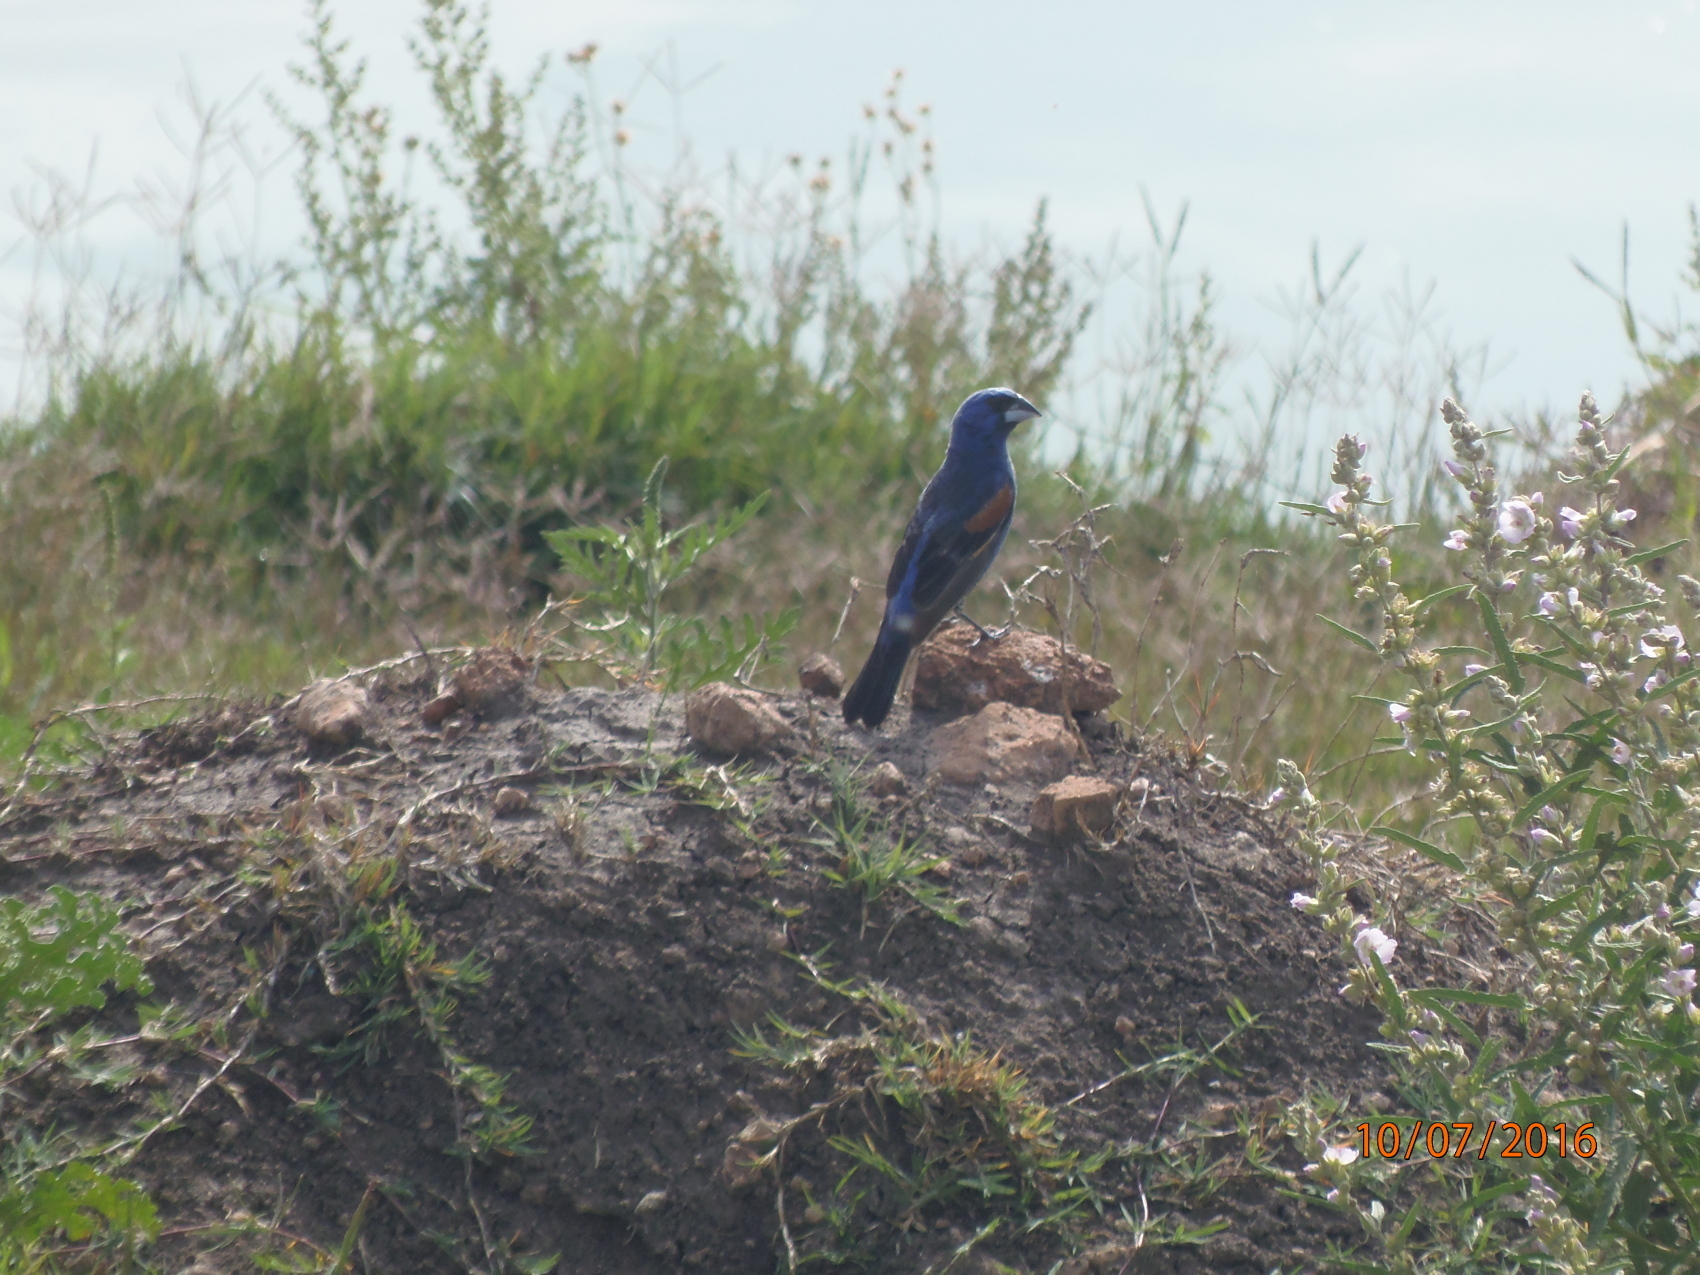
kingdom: Animalia
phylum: Chordata
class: Aves
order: Passeriformes
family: Cardinalidae
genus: Passerina
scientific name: Passerina caerulea
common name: Blue grosbeak
